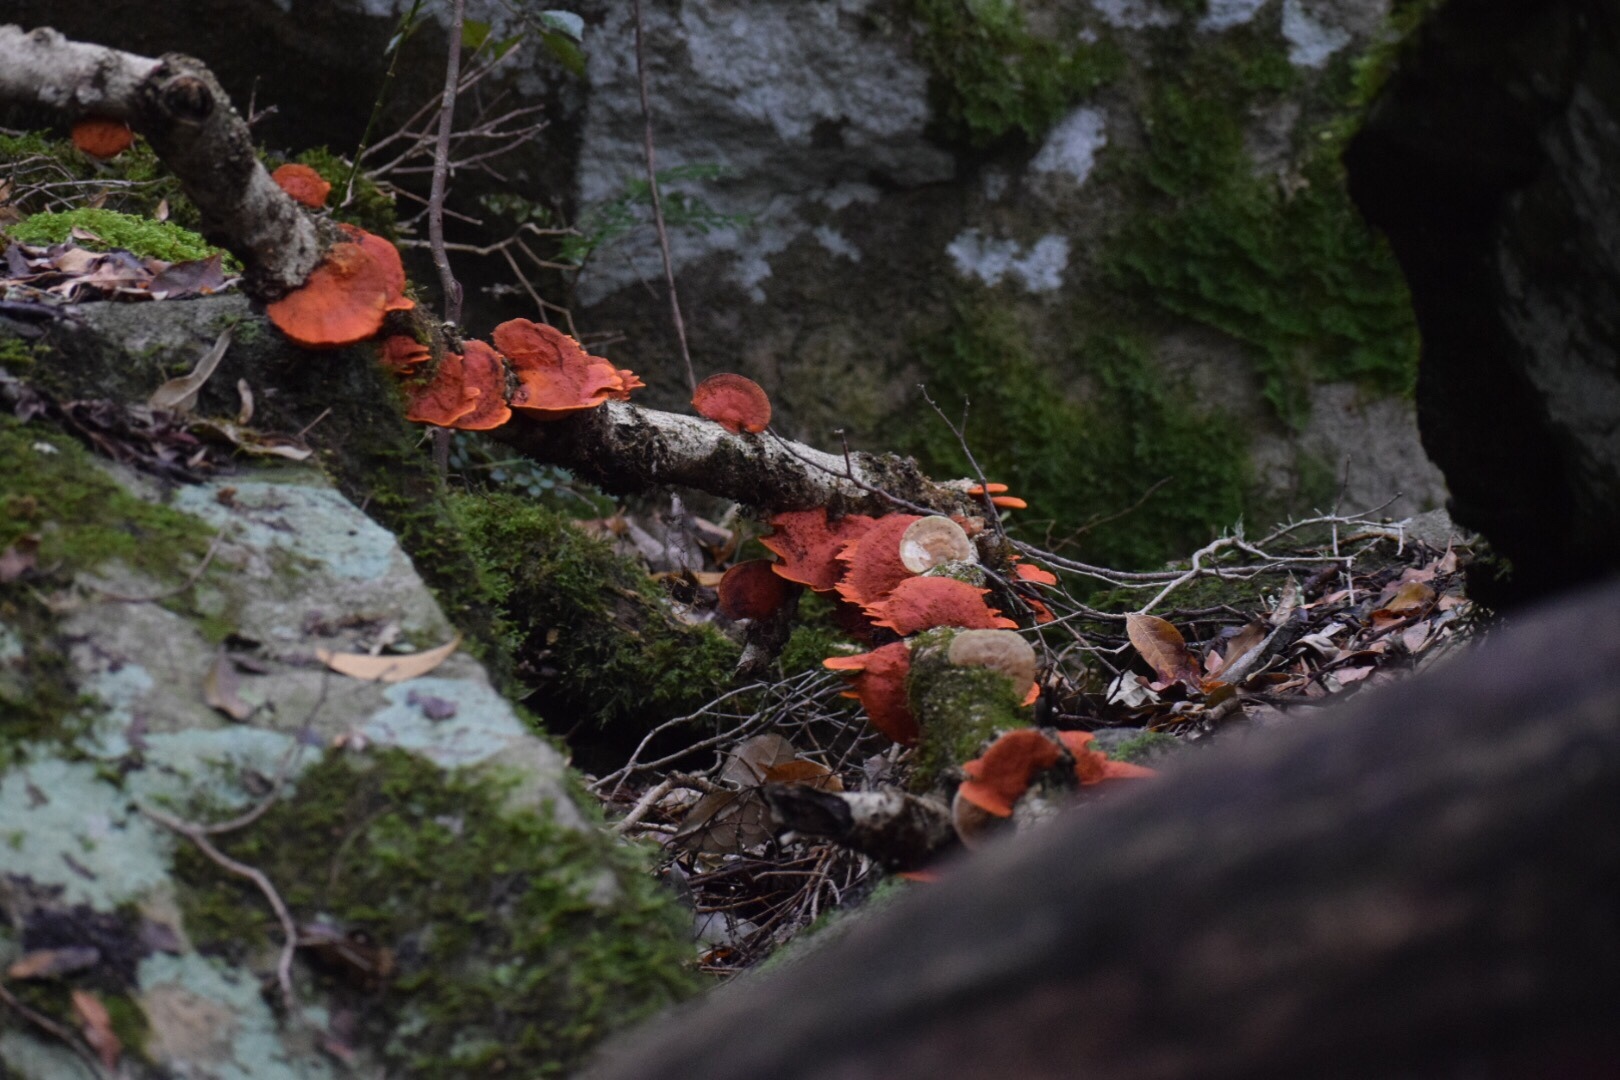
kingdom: Fungi
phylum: Basidiomycota
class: Agaricomycetes
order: Polyporales
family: Polyporaceae
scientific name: Polyporaceae
